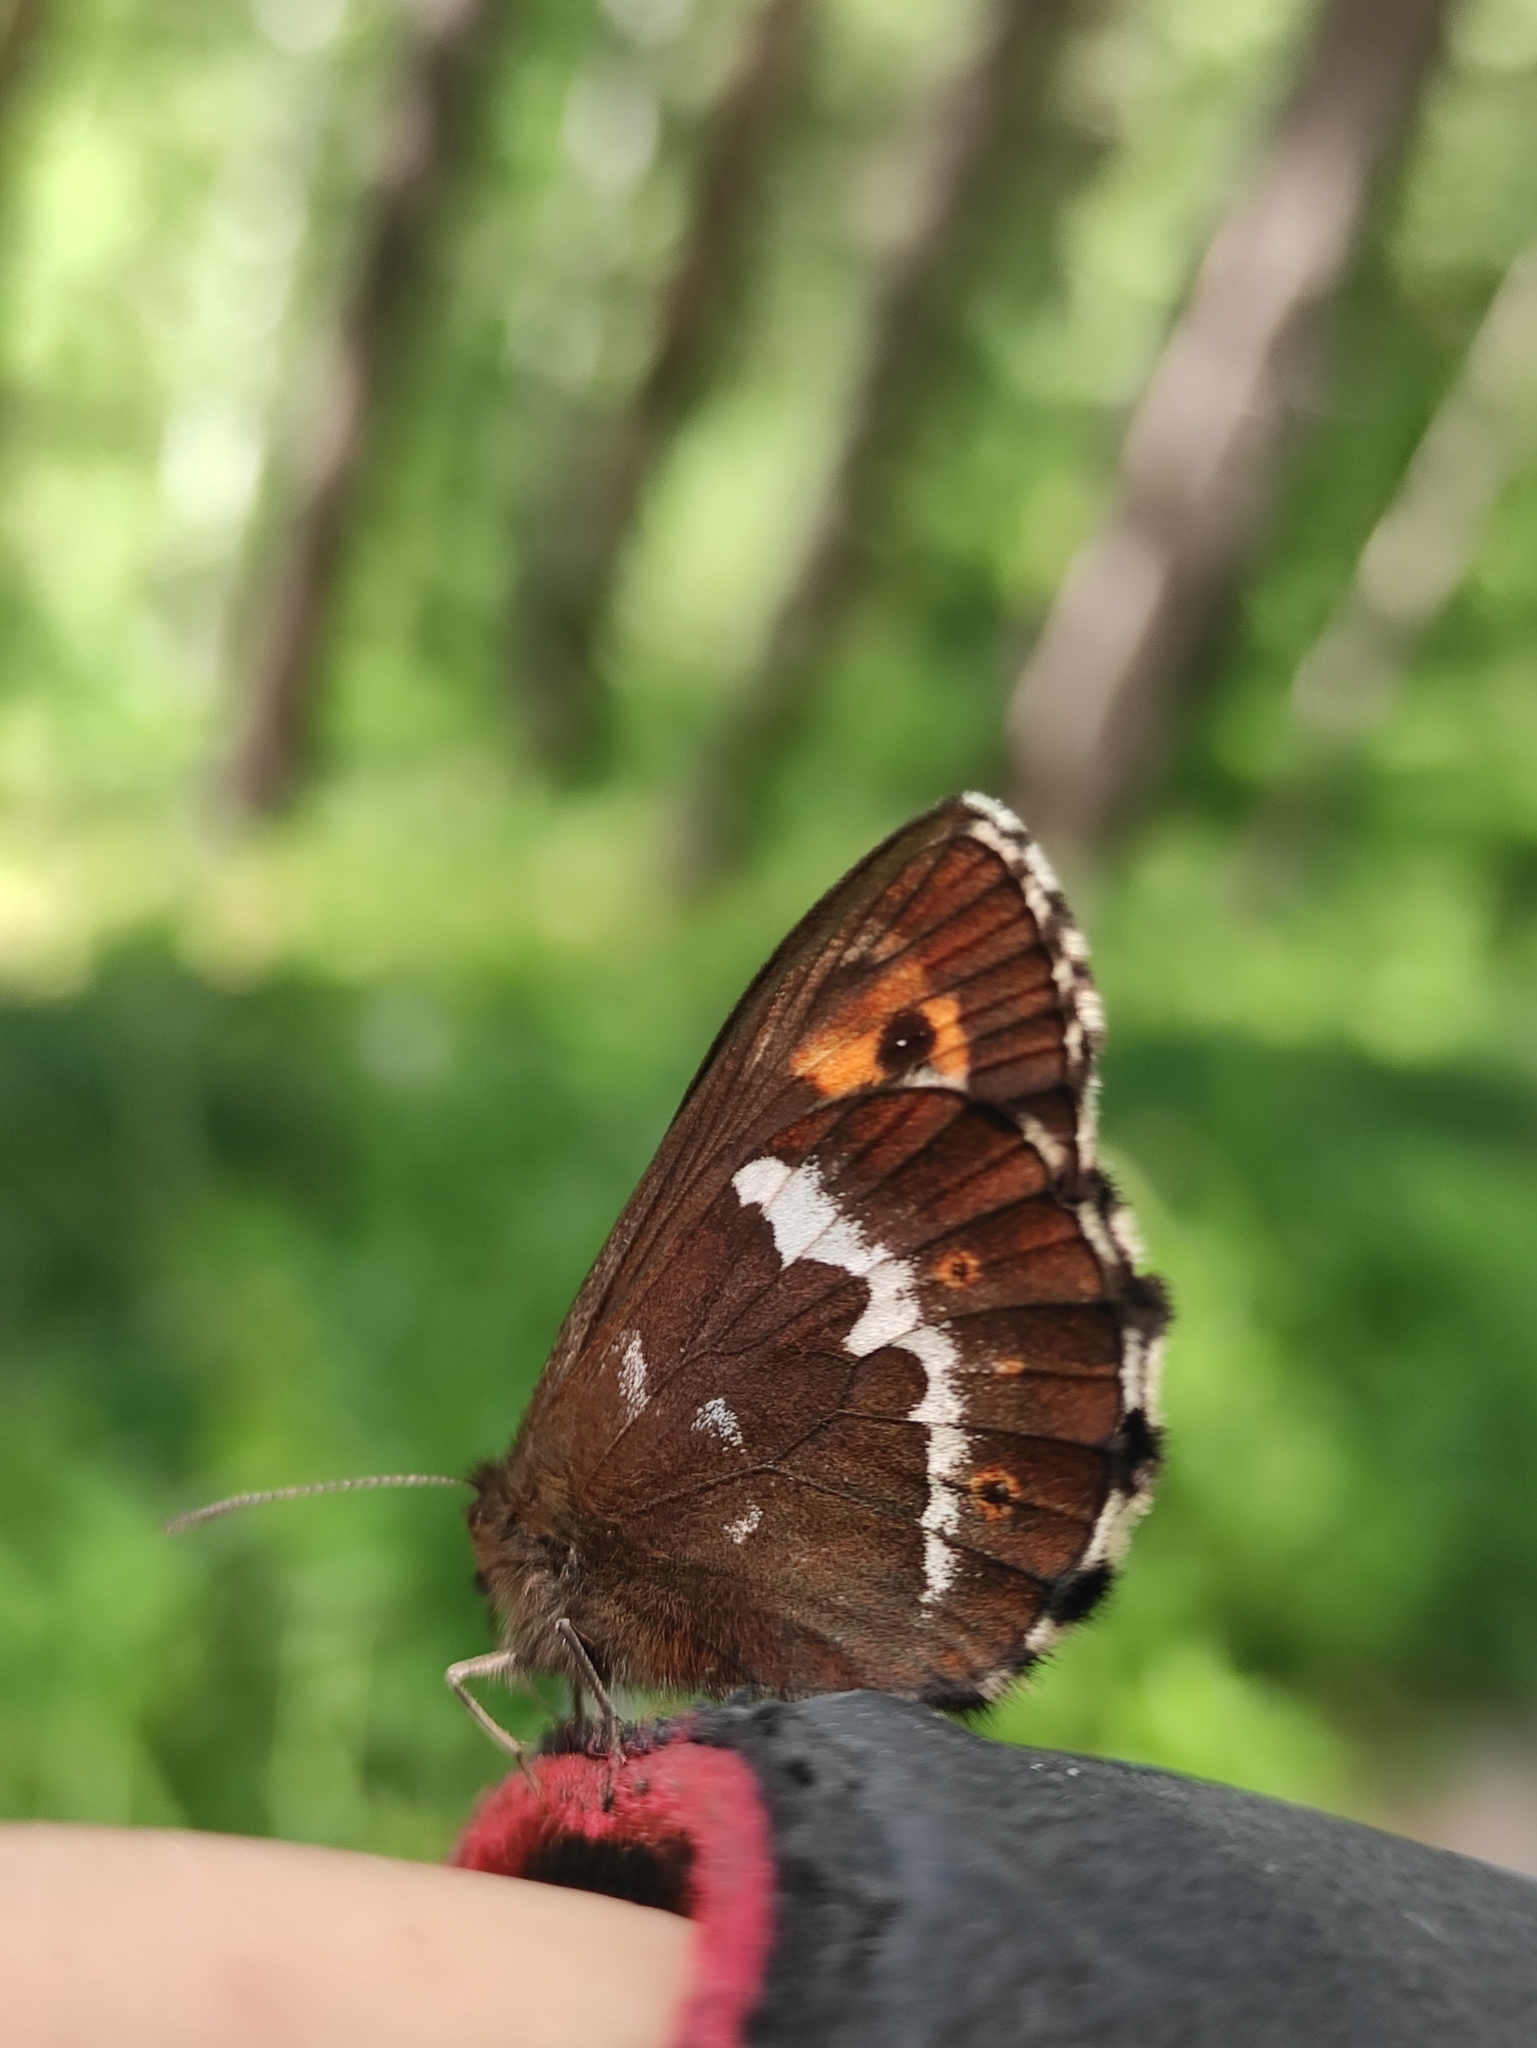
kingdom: Animalia
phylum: Arthropoda
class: Insecta
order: Lepidoptera
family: Nymphalidae
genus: Erebia
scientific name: Erebia ligea
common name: Arran brown
